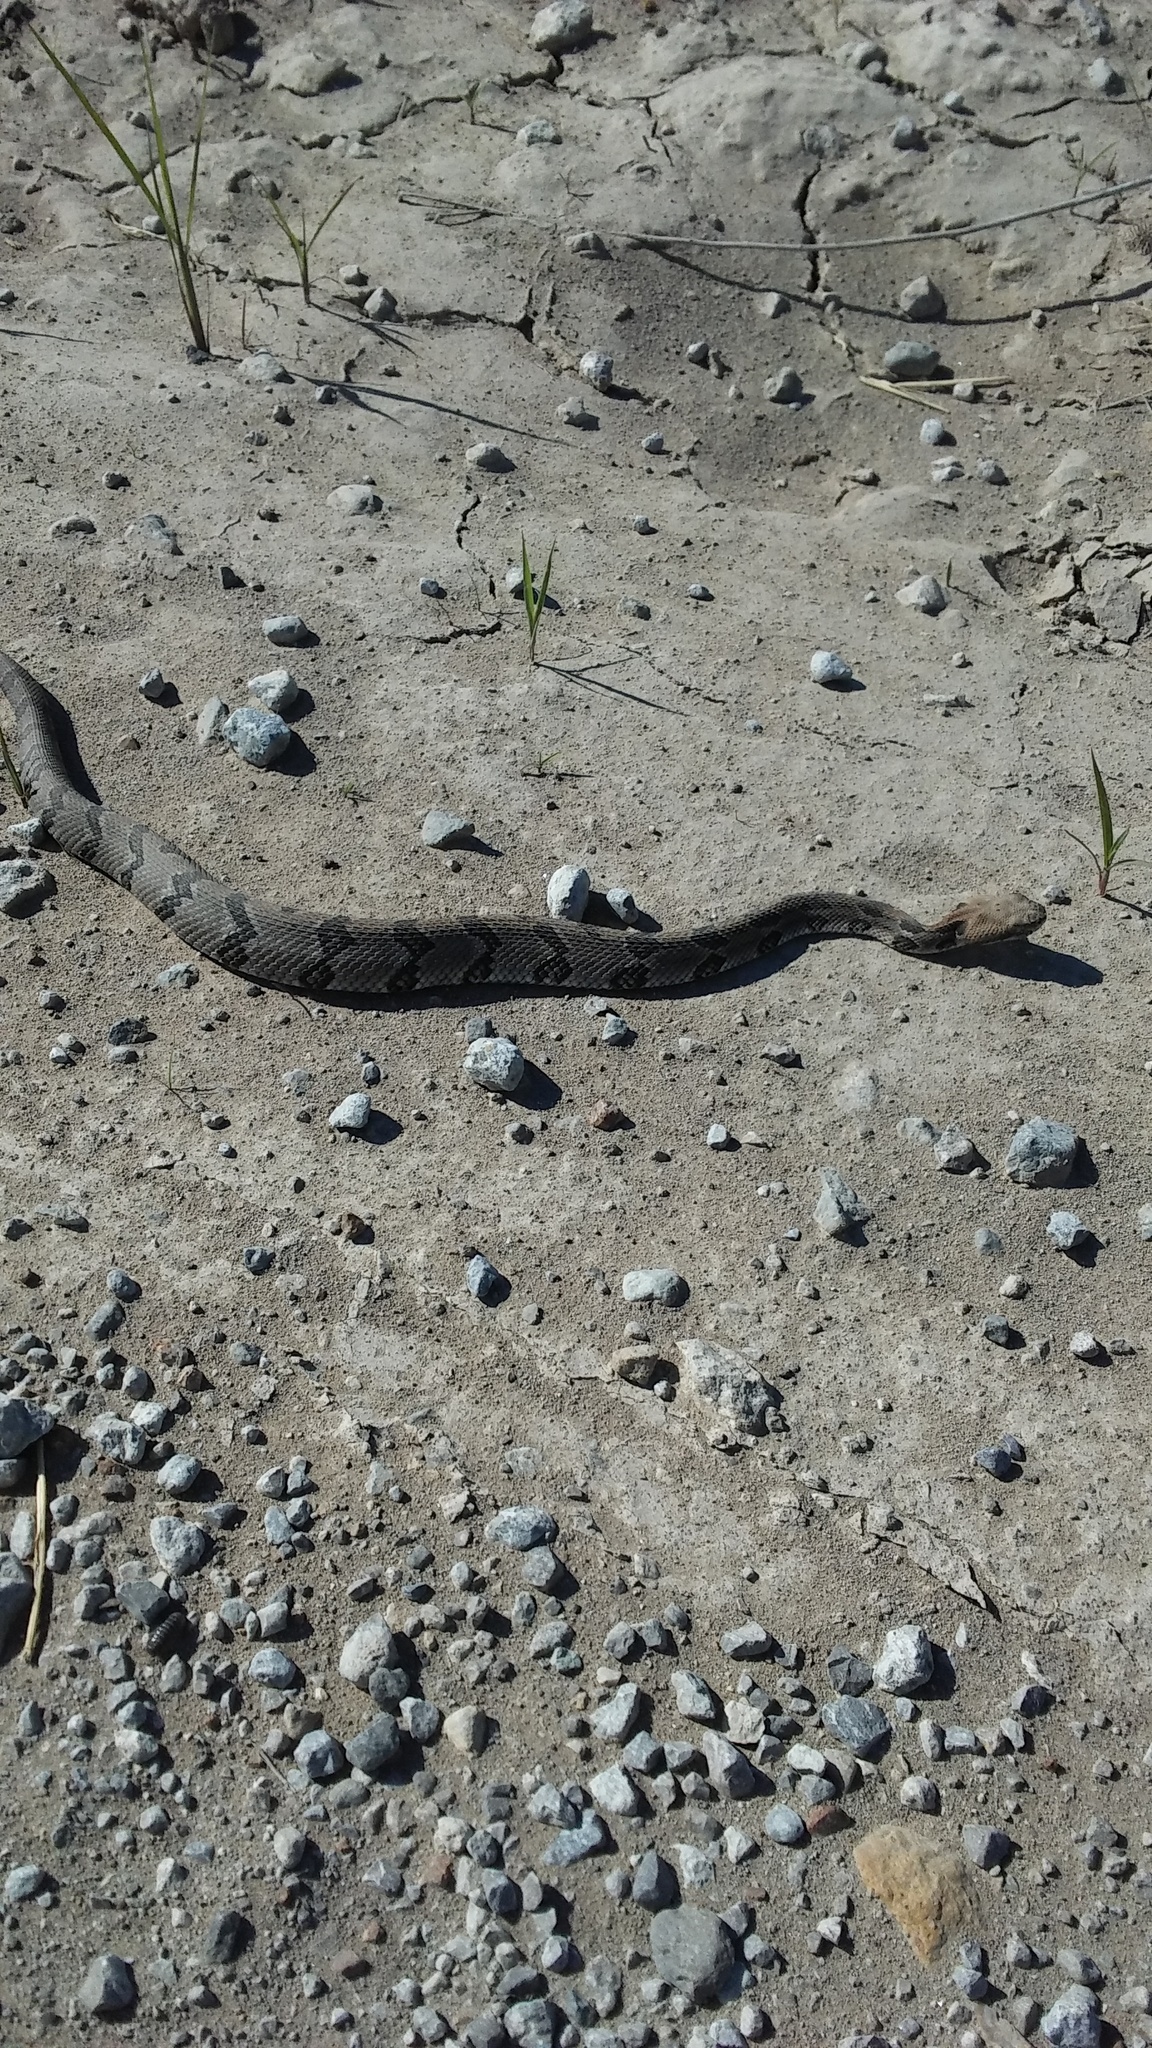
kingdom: Animalia
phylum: Chordata
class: Squamata
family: Viperidae
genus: Crotalus
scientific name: Crotalus horridus
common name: Timber rattlesnake
